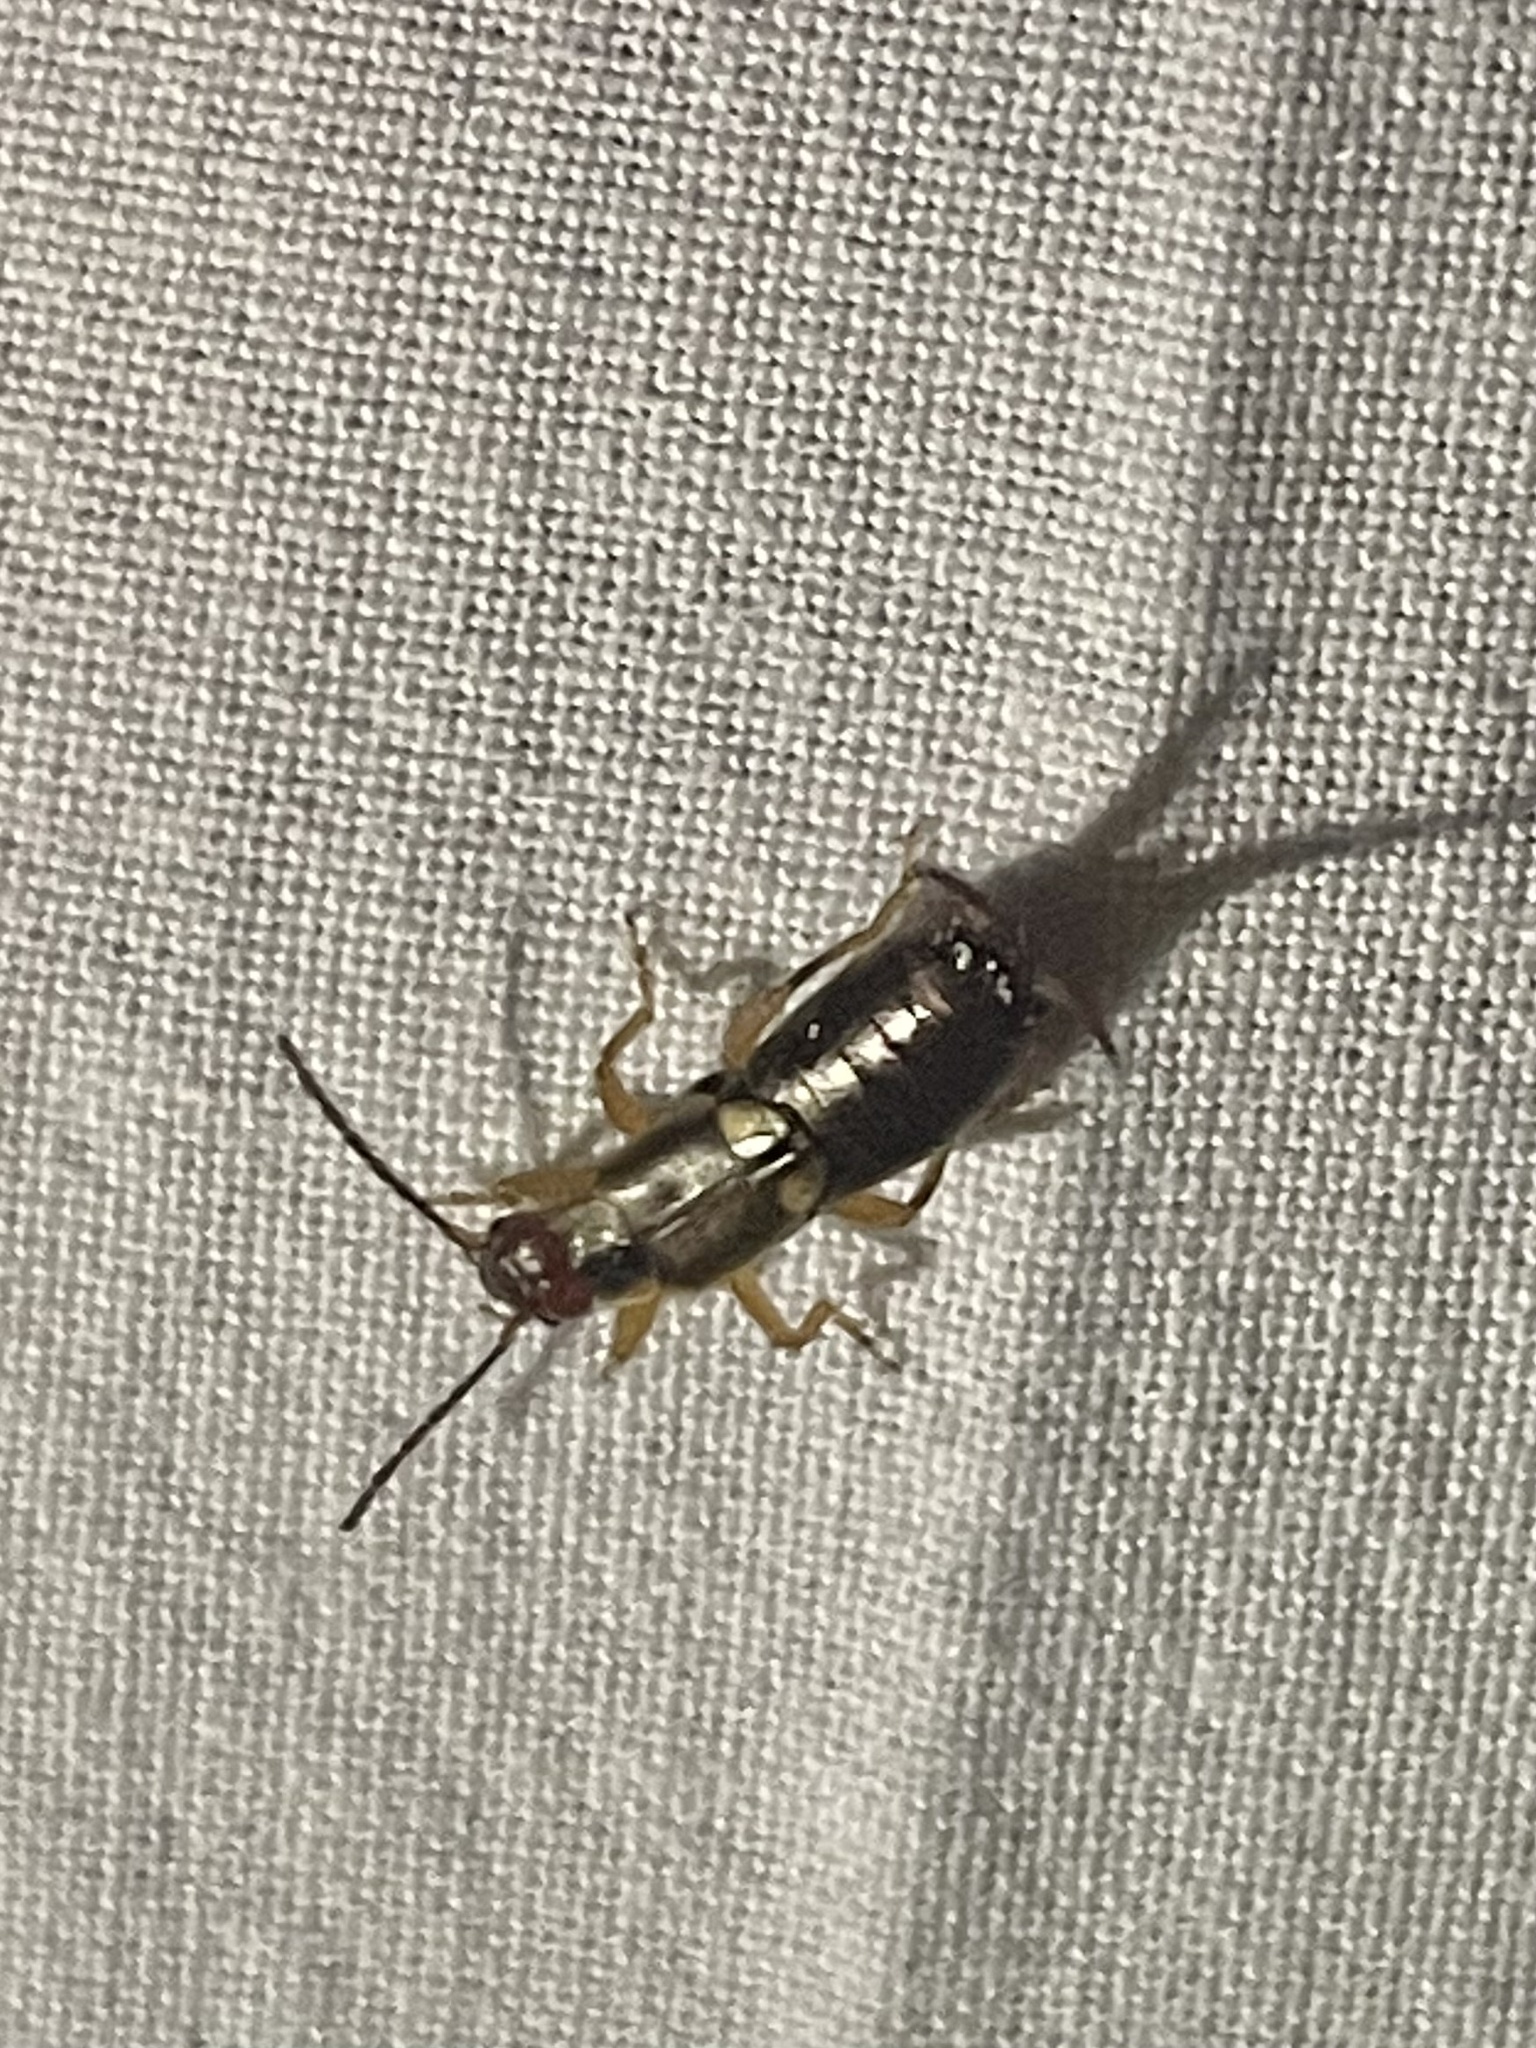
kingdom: Animalia
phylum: Arthropoda
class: Insecta
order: Dermaptera
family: Forficulidae
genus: Forficula
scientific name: Forficula
